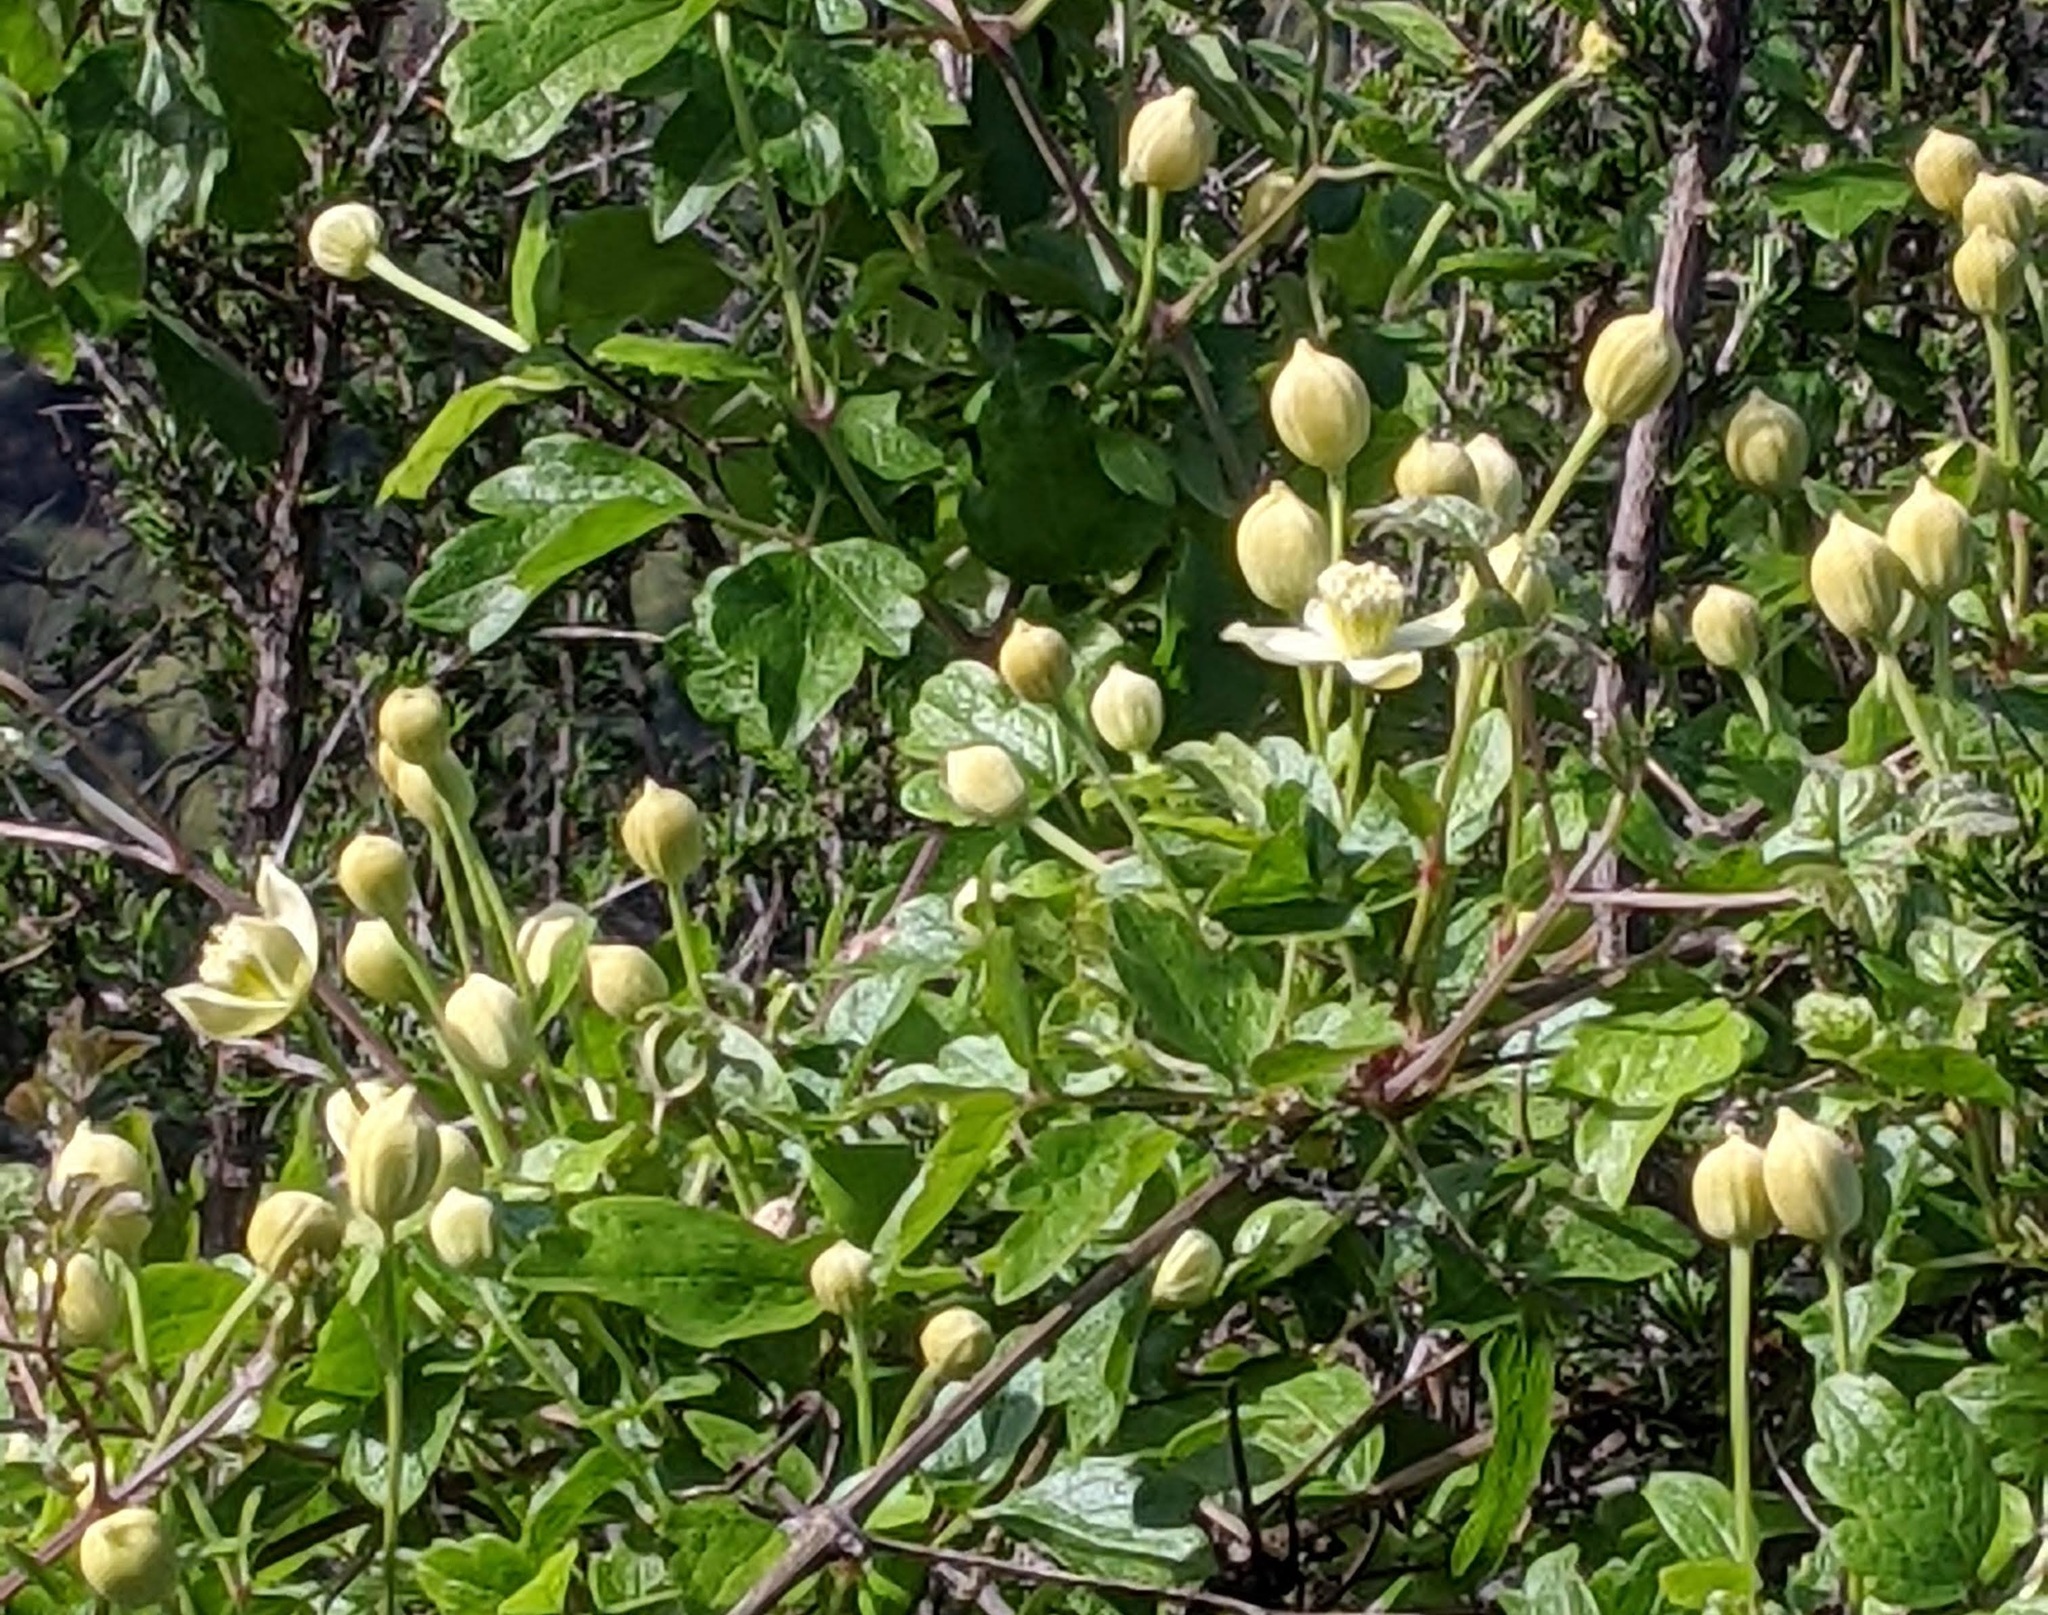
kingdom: Plantae
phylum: Tracheophyta
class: Magnoliopsida
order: Ranunculales
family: Ranunculaceae
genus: Clematis
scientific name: Clematis lasiantha
